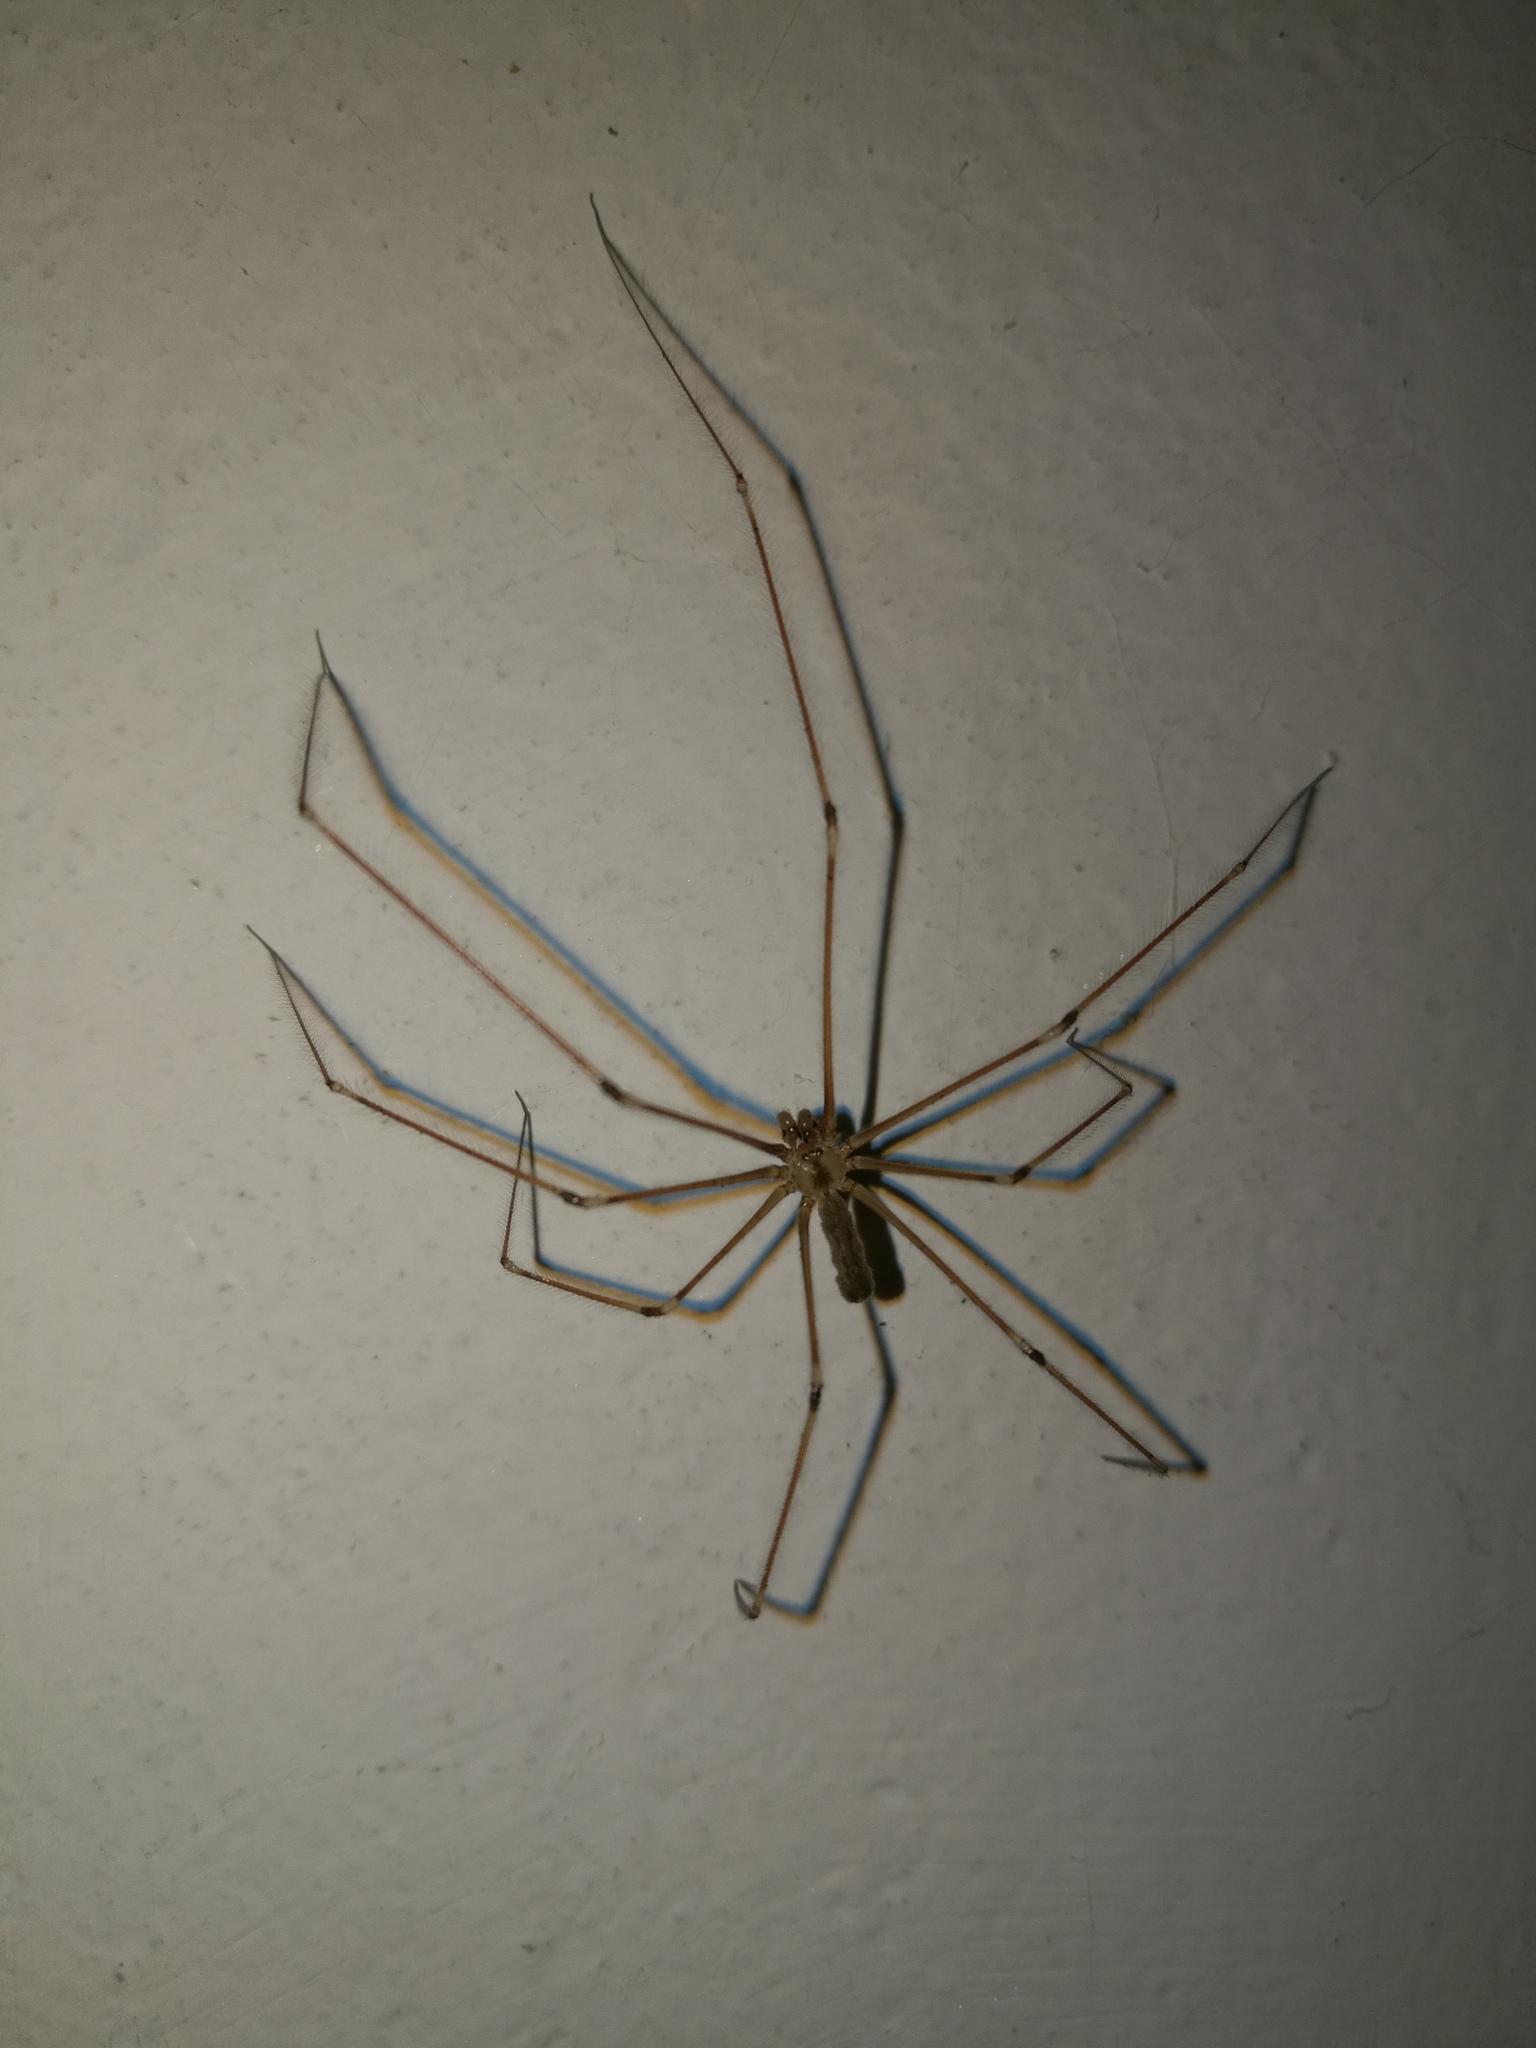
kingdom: Animalia
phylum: Arthropoda
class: Arachnida
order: Araneae
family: Pholcidae
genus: Pholcus
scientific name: Pholcus phalangioides
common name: Longbodied cellar spider
